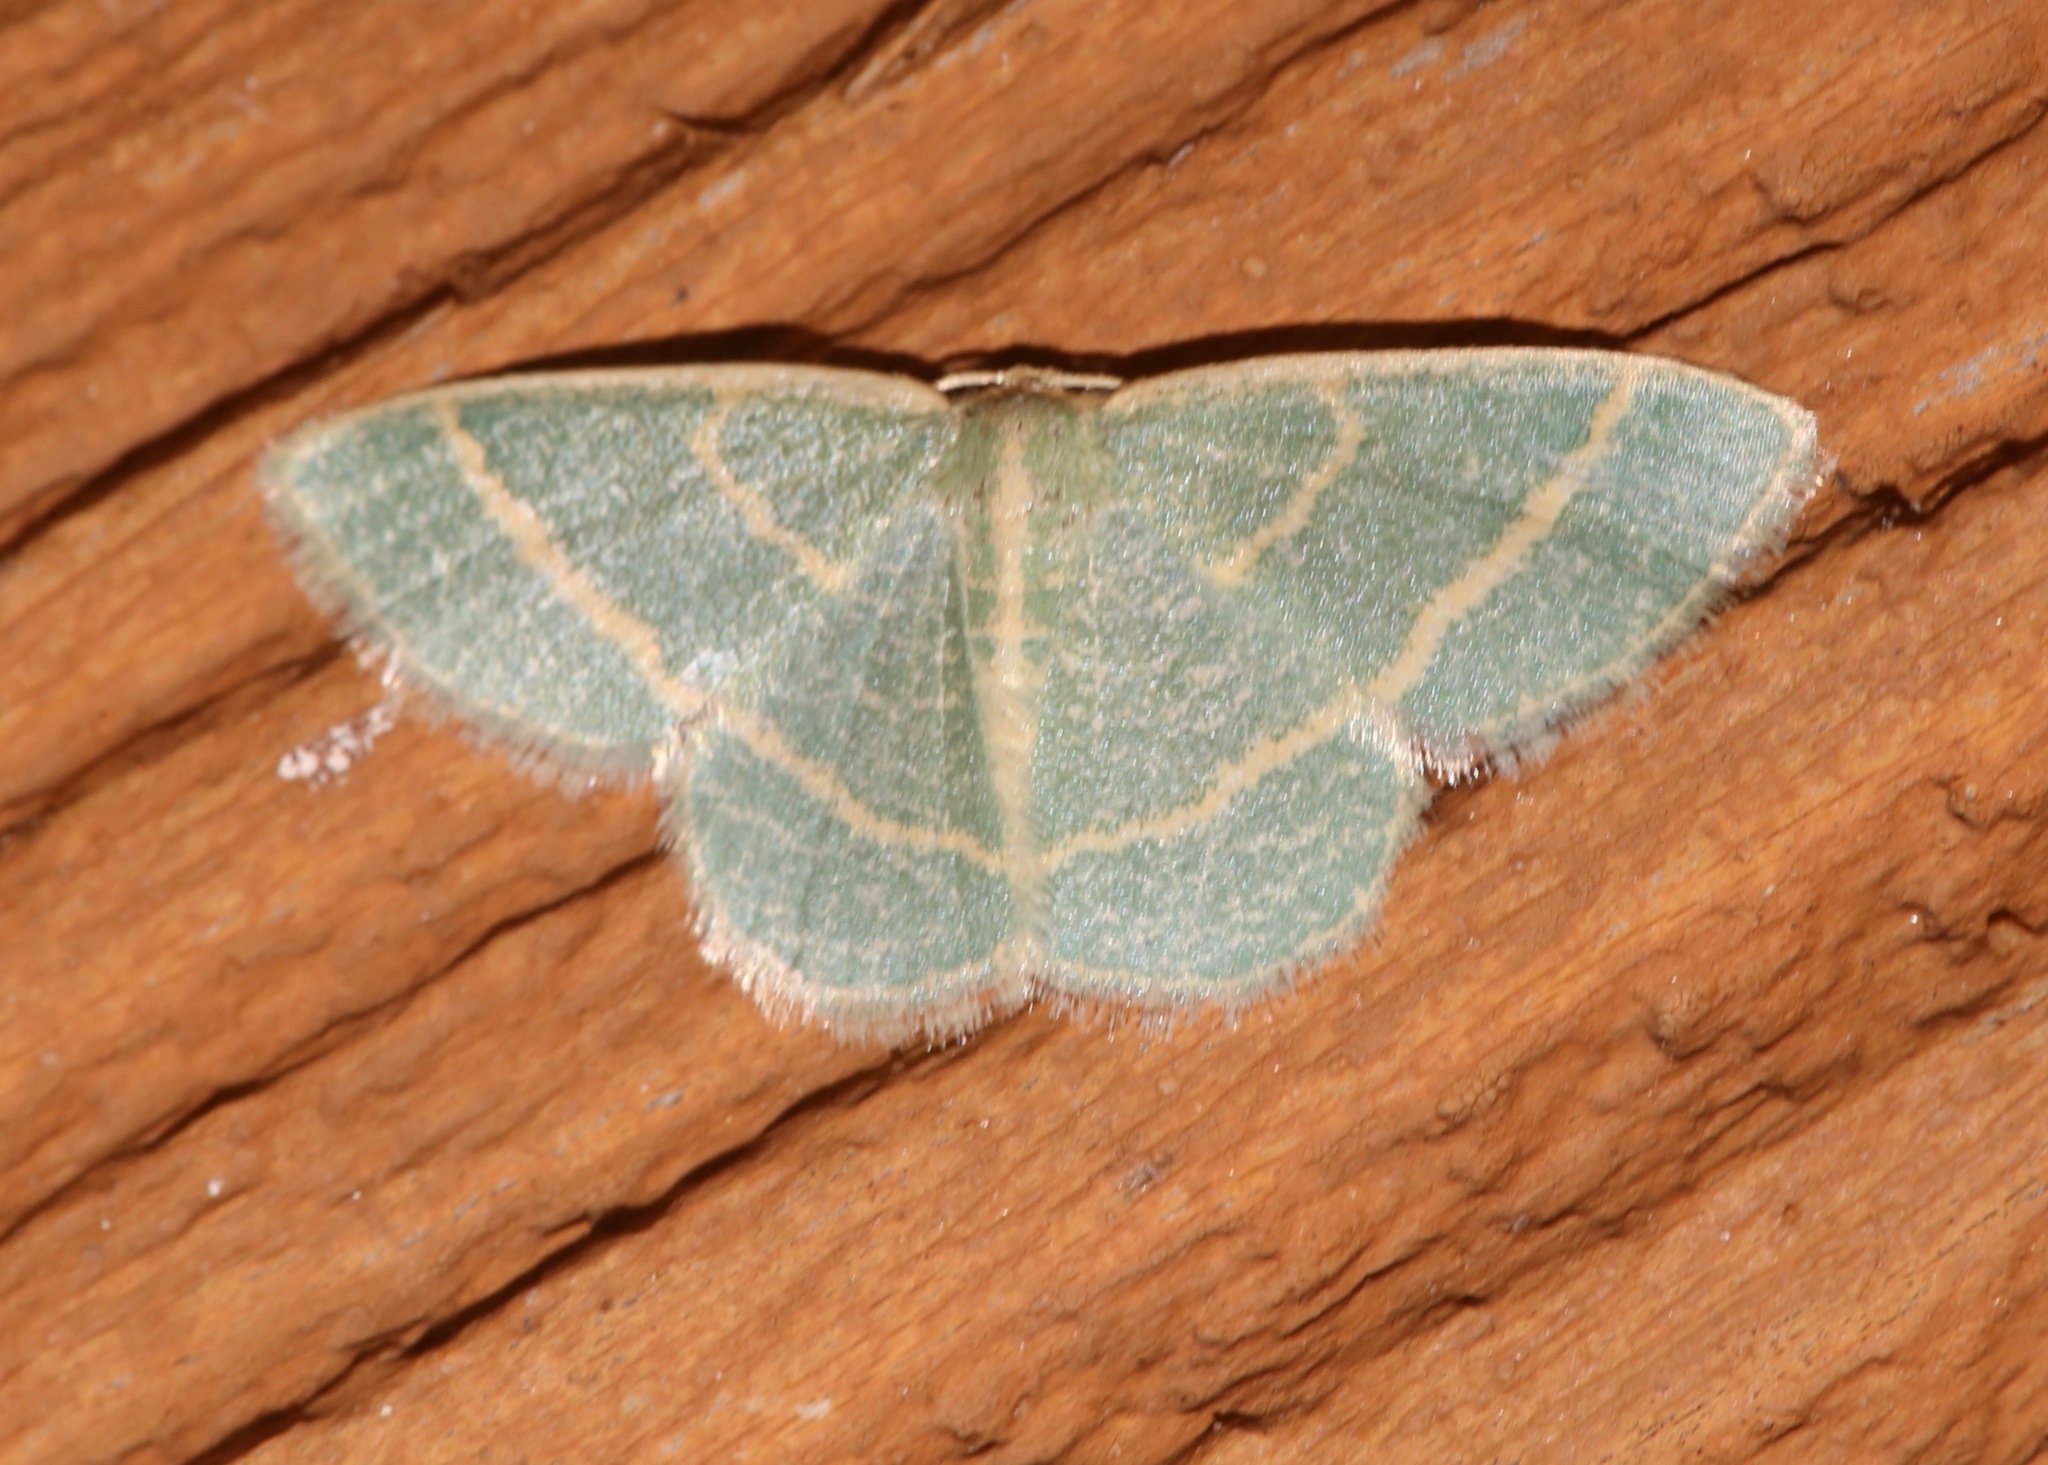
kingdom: Animalia
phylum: Arthropoda
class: Insecta
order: Lepidoptera
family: Geometridae
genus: Chlorochlamys
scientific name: Chlorochlamys chloroleucaria
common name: Blackberry looper
